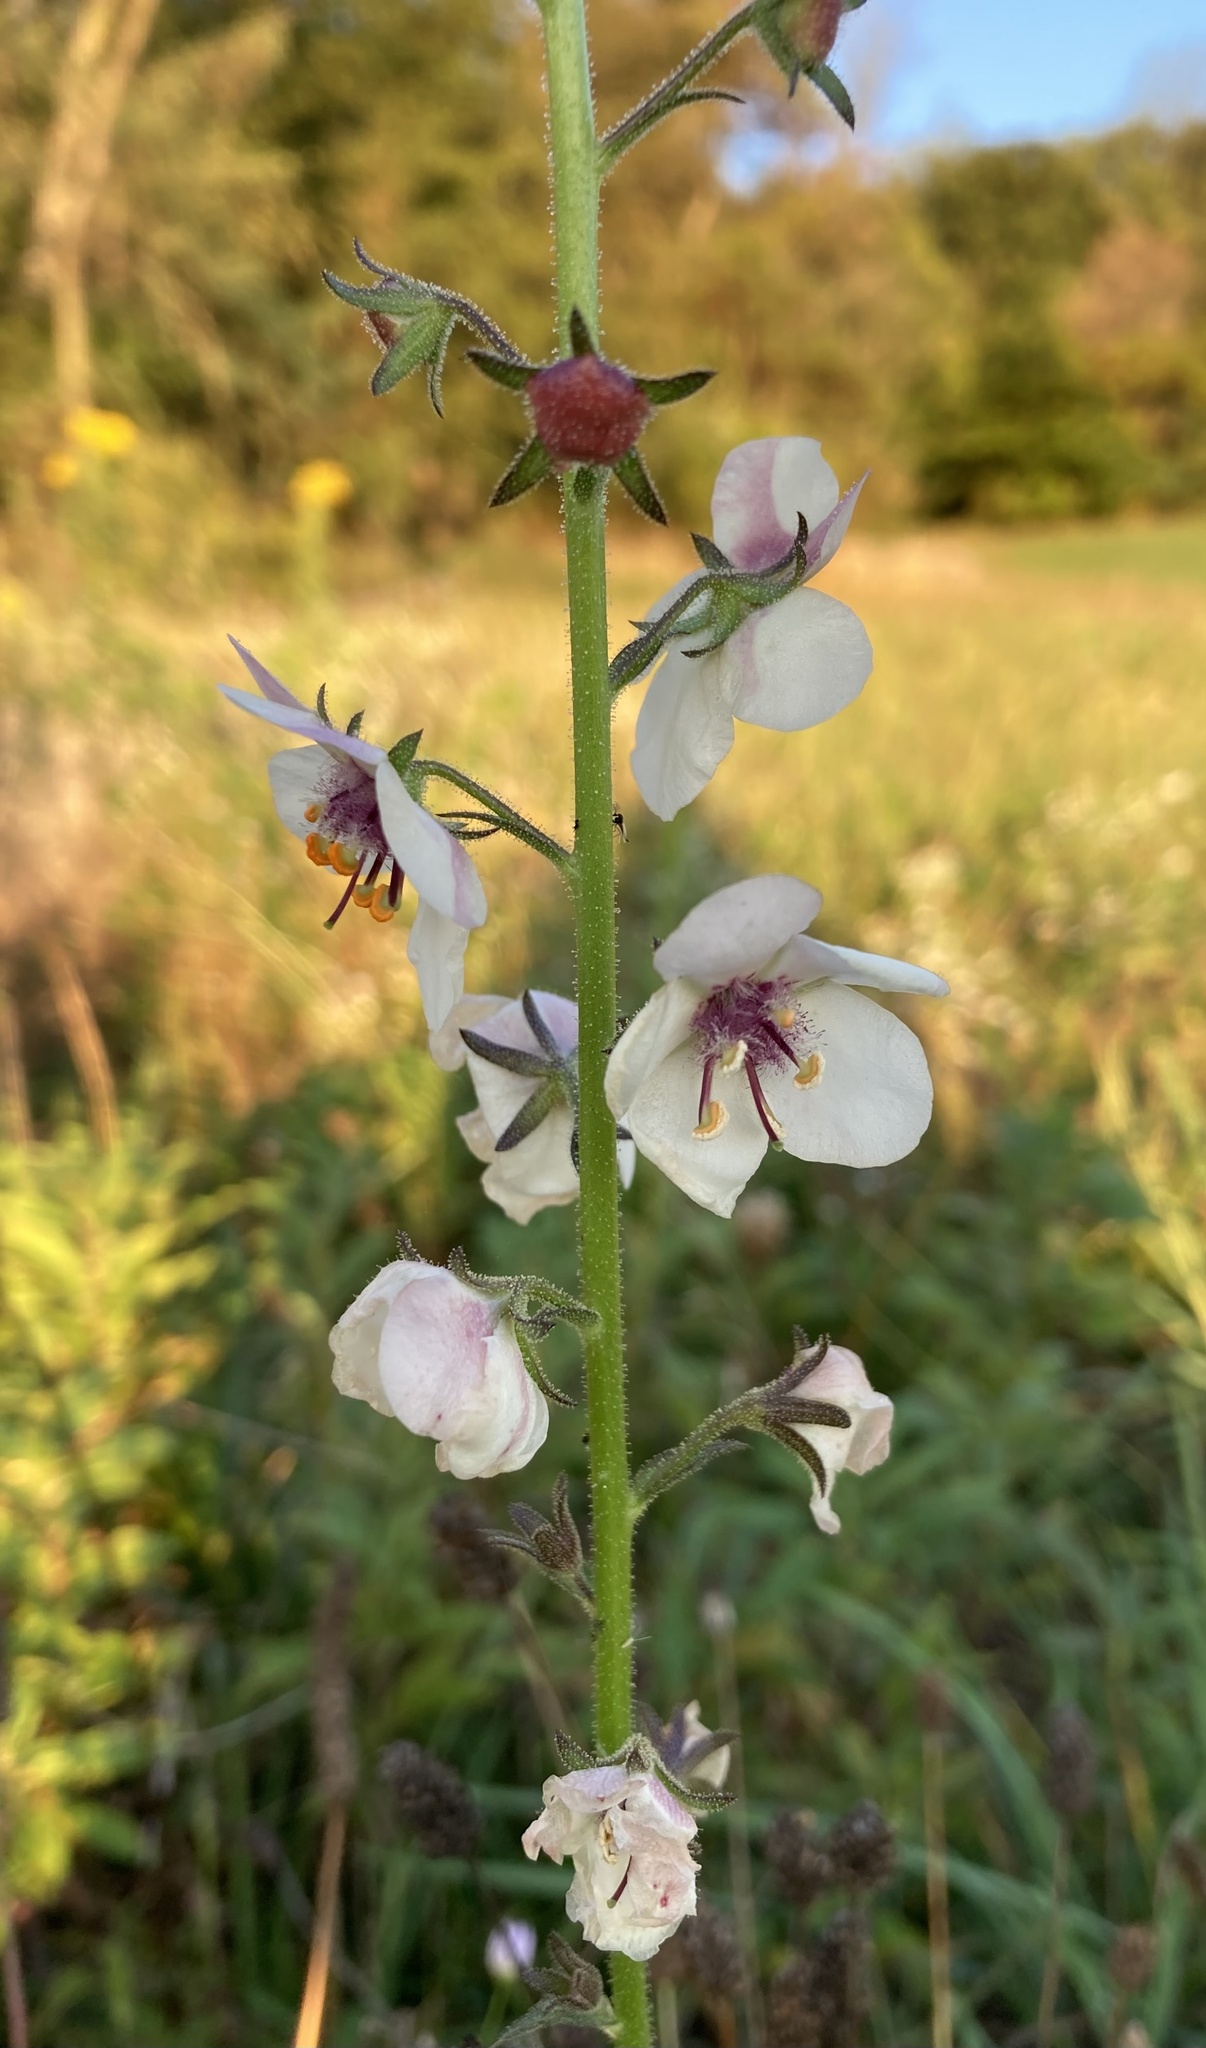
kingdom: Plantae
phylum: Tracheophyta
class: Magnoliopsida
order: Lamiales
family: Scrophulariaceae
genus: Verbascum
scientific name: Verbascum blattaria
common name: Moth mullein
